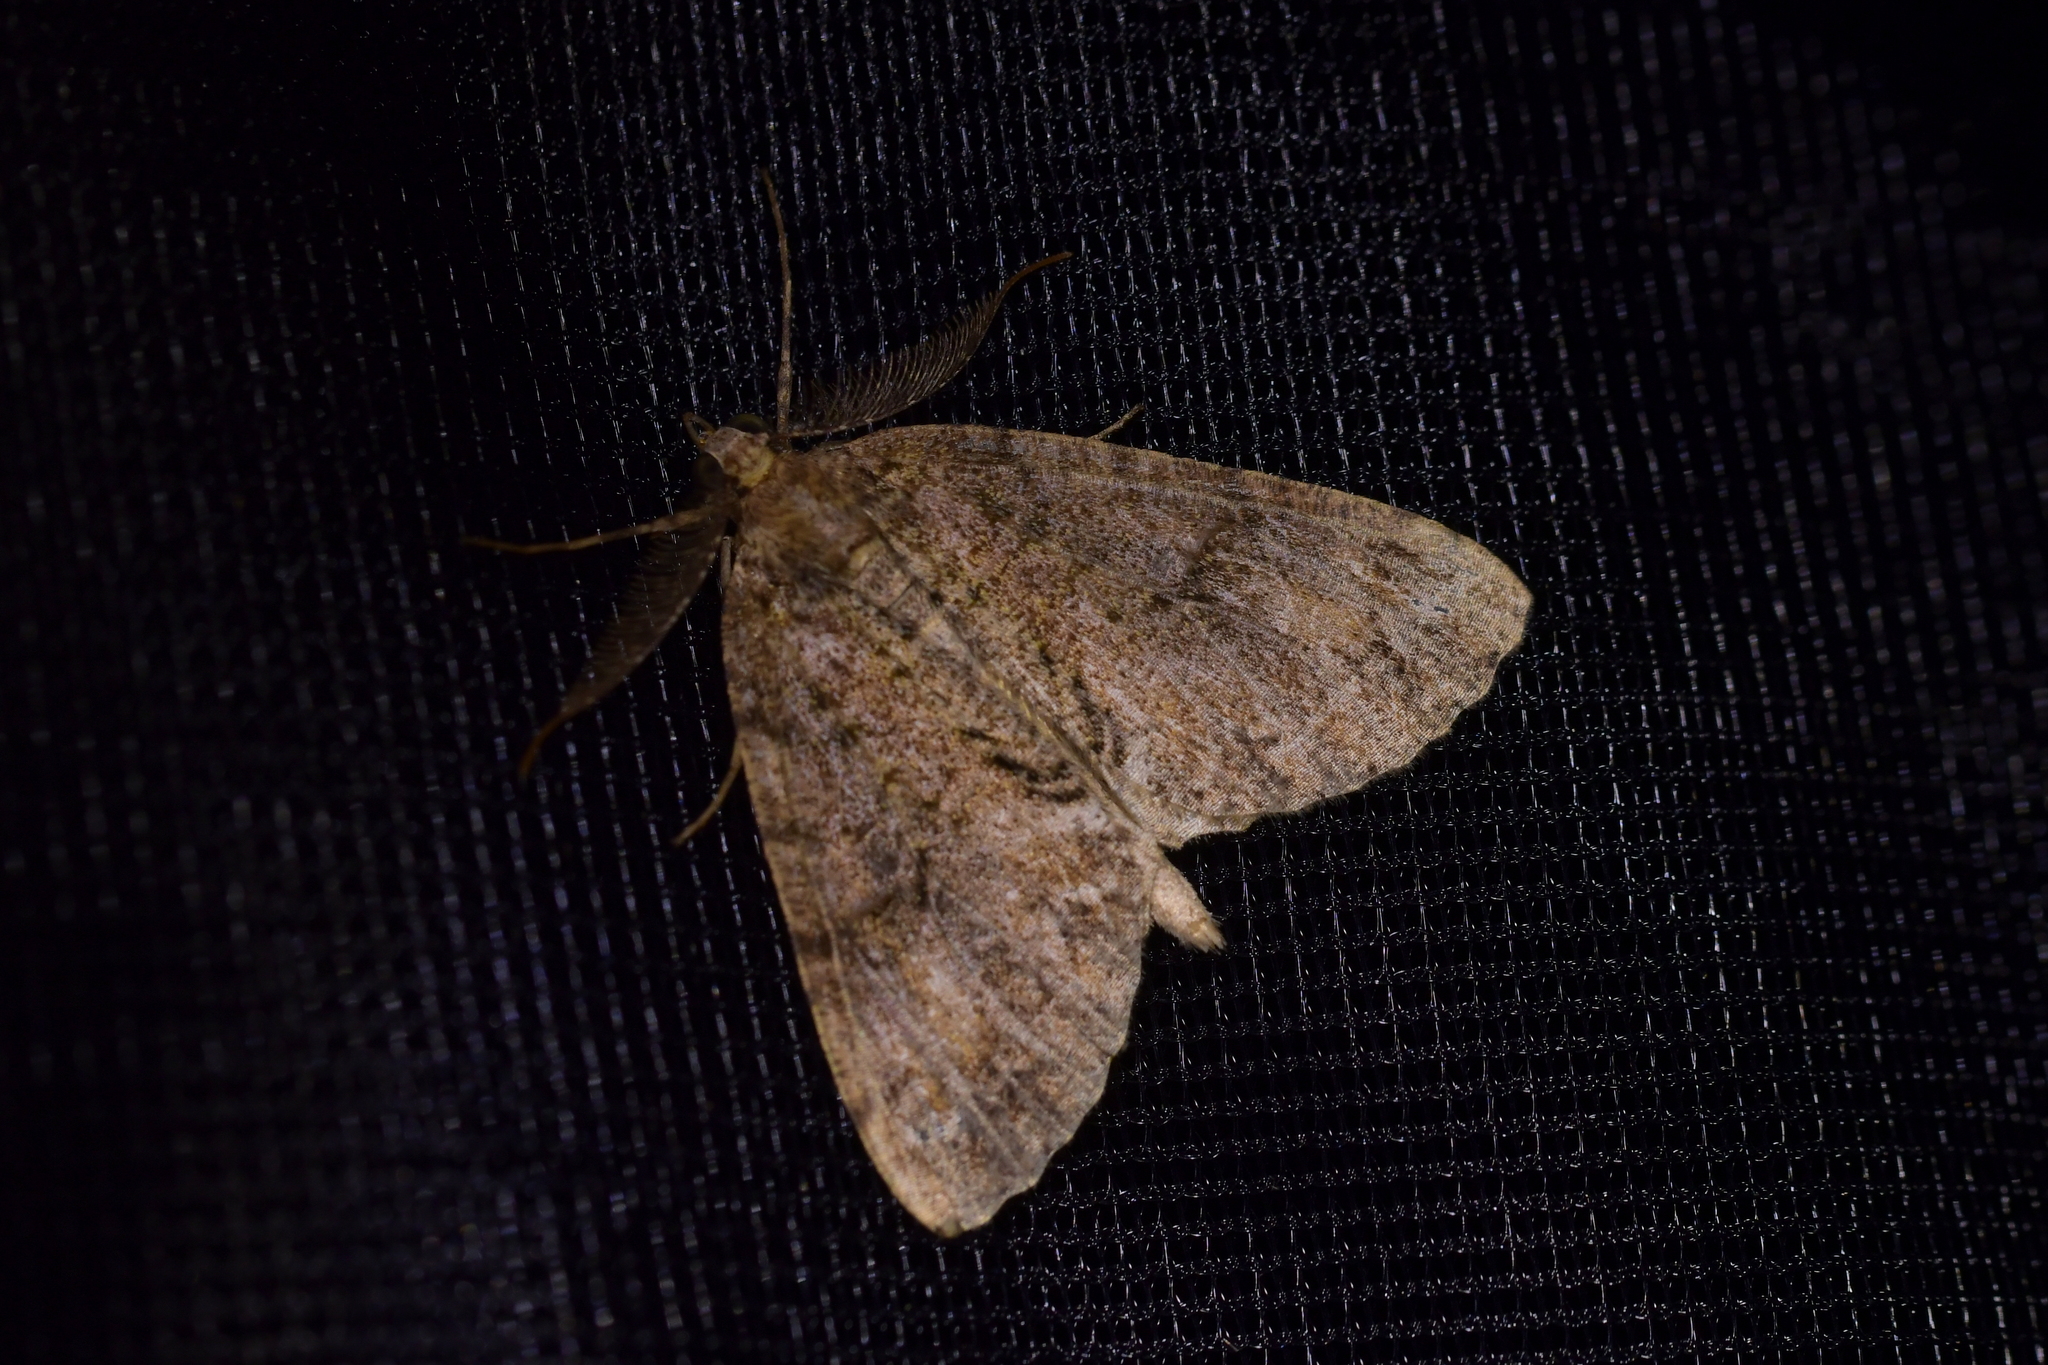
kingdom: Animalia
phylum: Arthropoda
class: Insecta
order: Lepidoptera
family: Geometridae
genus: Pseudocoremia
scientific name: Pseudocoremia suavis
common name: Common forest looper
